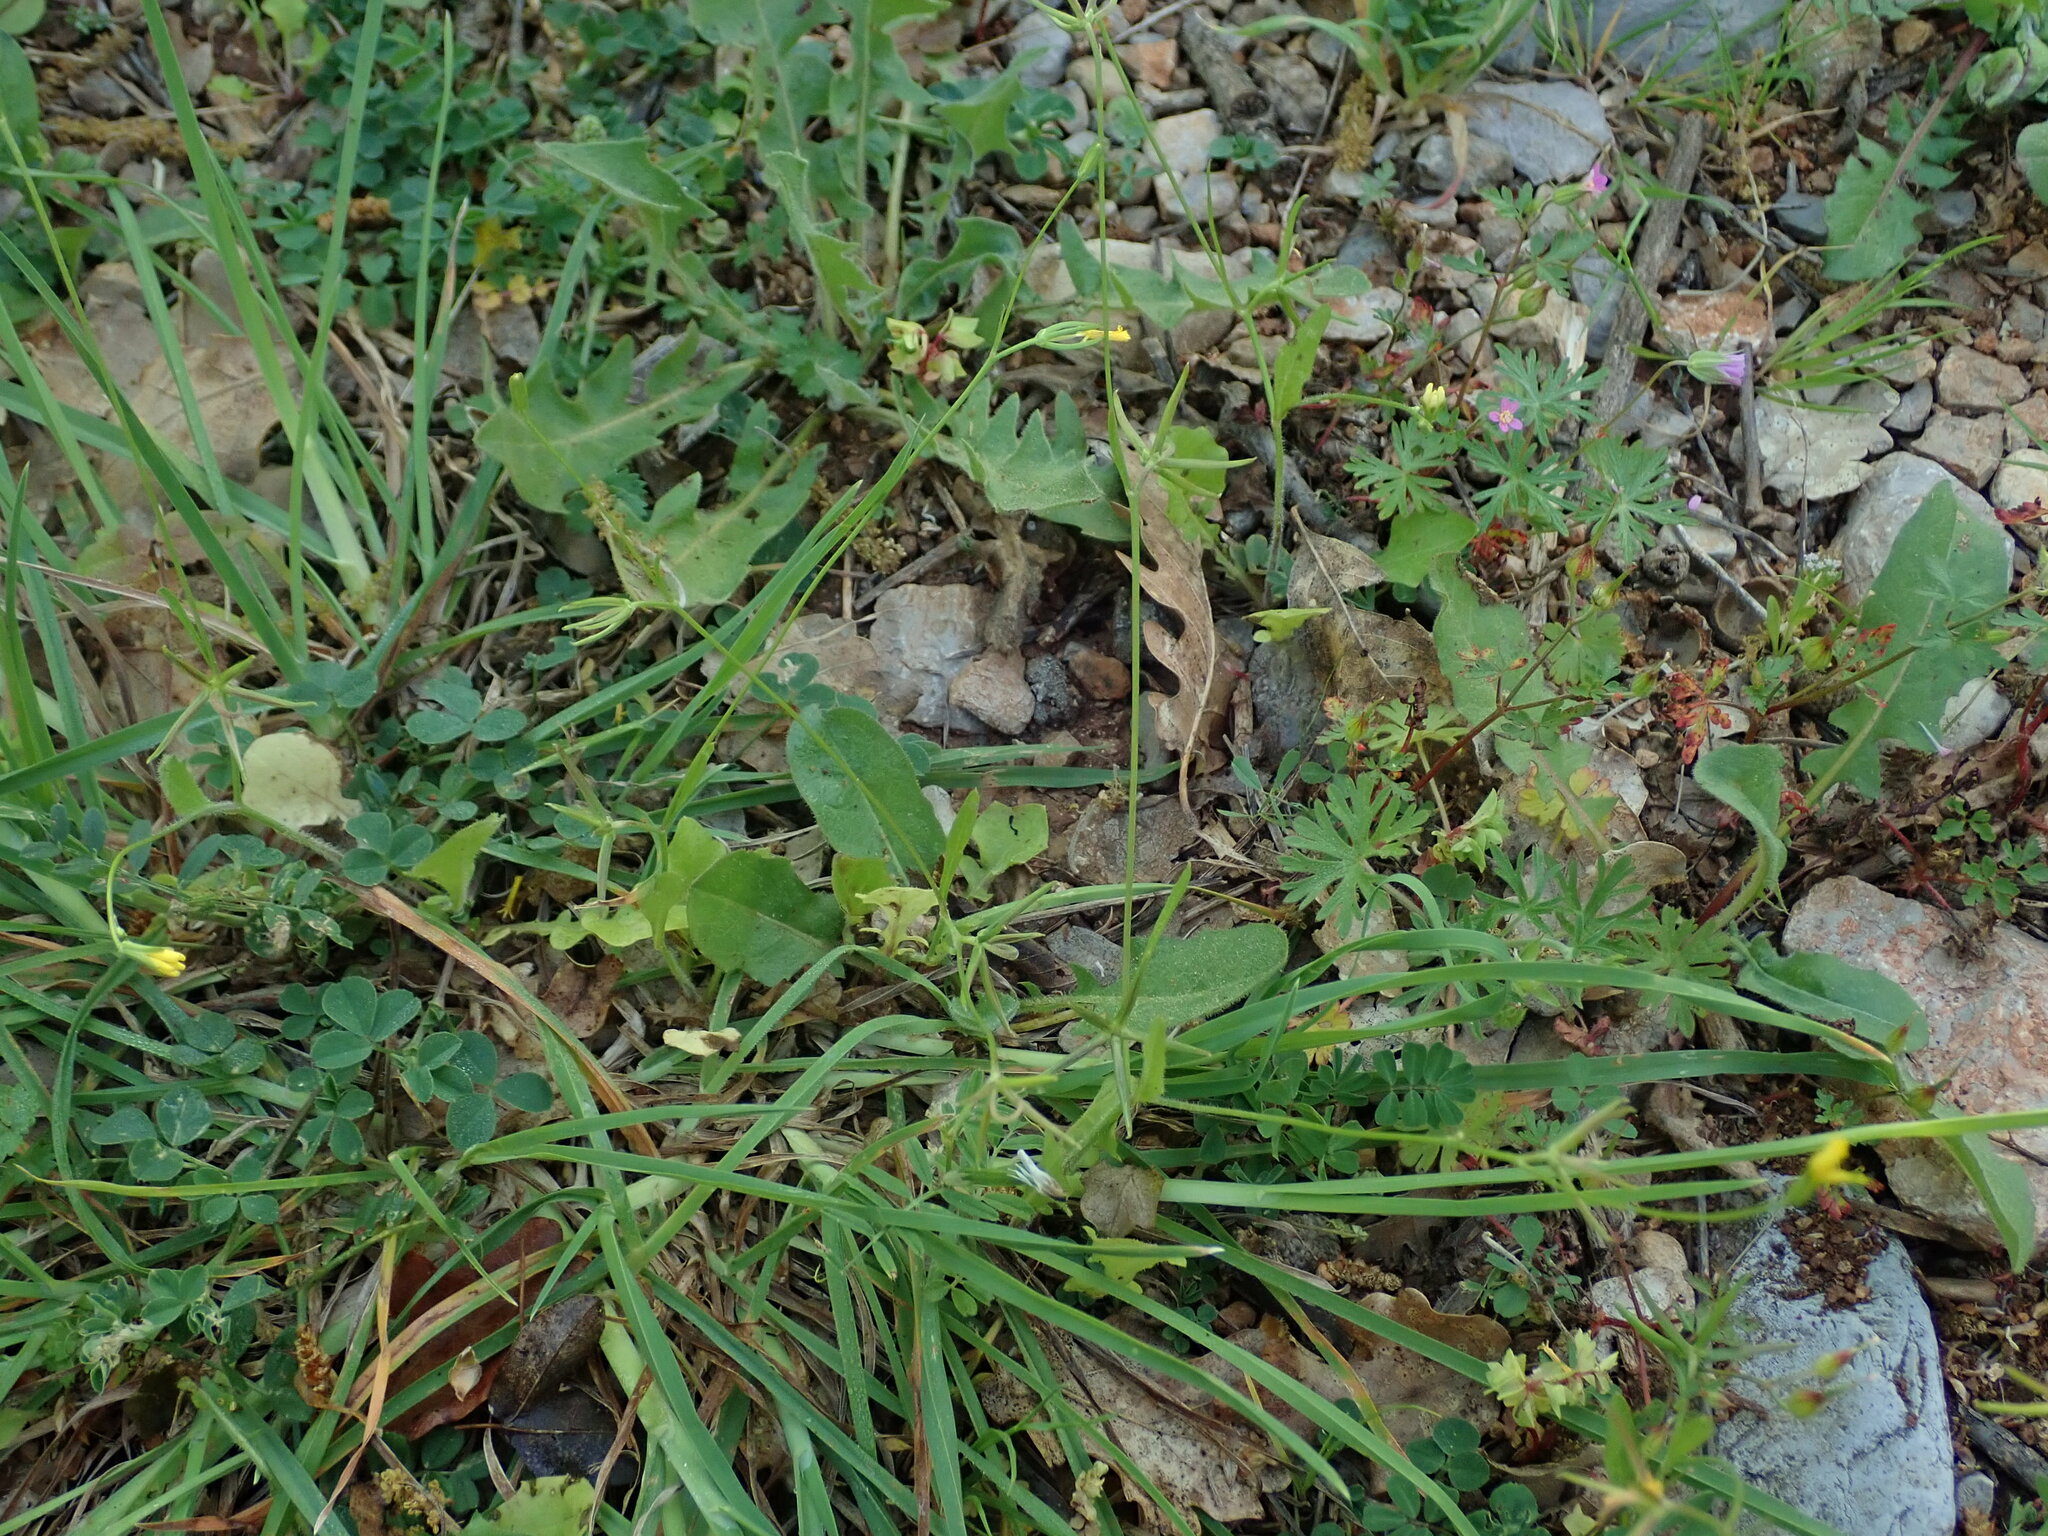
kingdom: Plantae
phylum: Tracheophyta
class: Magnoliopsida
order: Asterales
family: Asteraceae
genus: Rhagadiolus
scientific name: Rhagadiolus edulis
